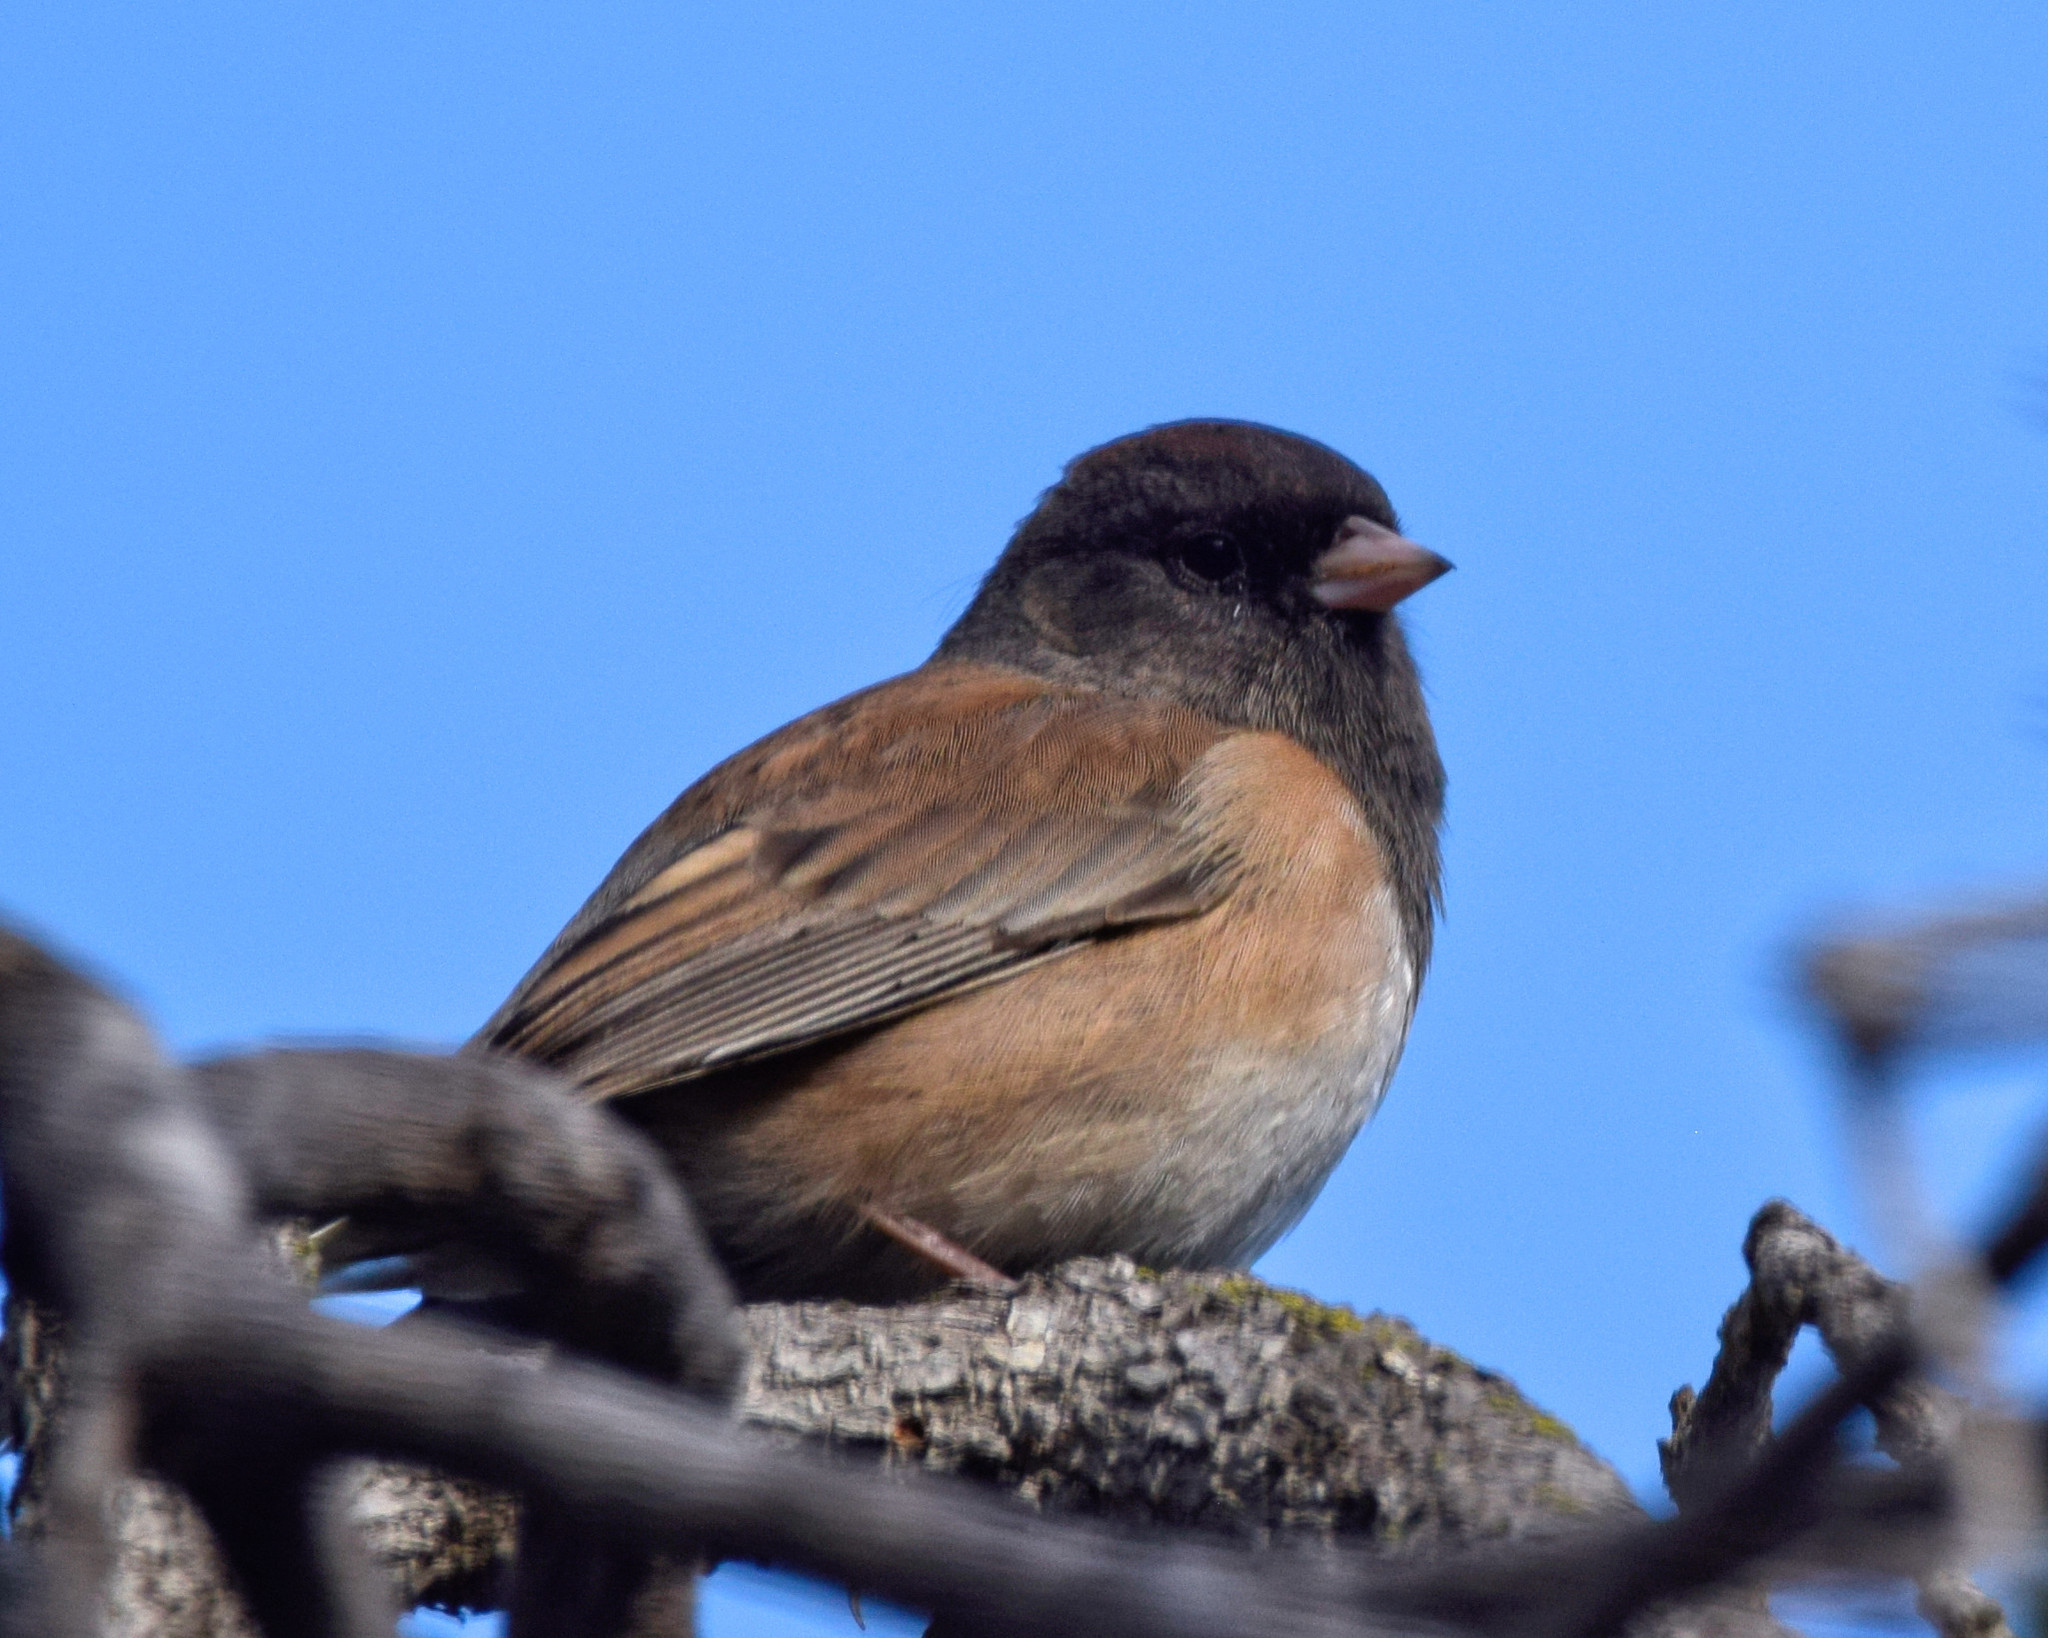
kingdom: Animalia
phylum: Chordata
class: Aves
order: Passeriformes
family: Passerellidae
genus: Junco
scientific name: Junco hyemalis
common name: Dark-eyed junco
